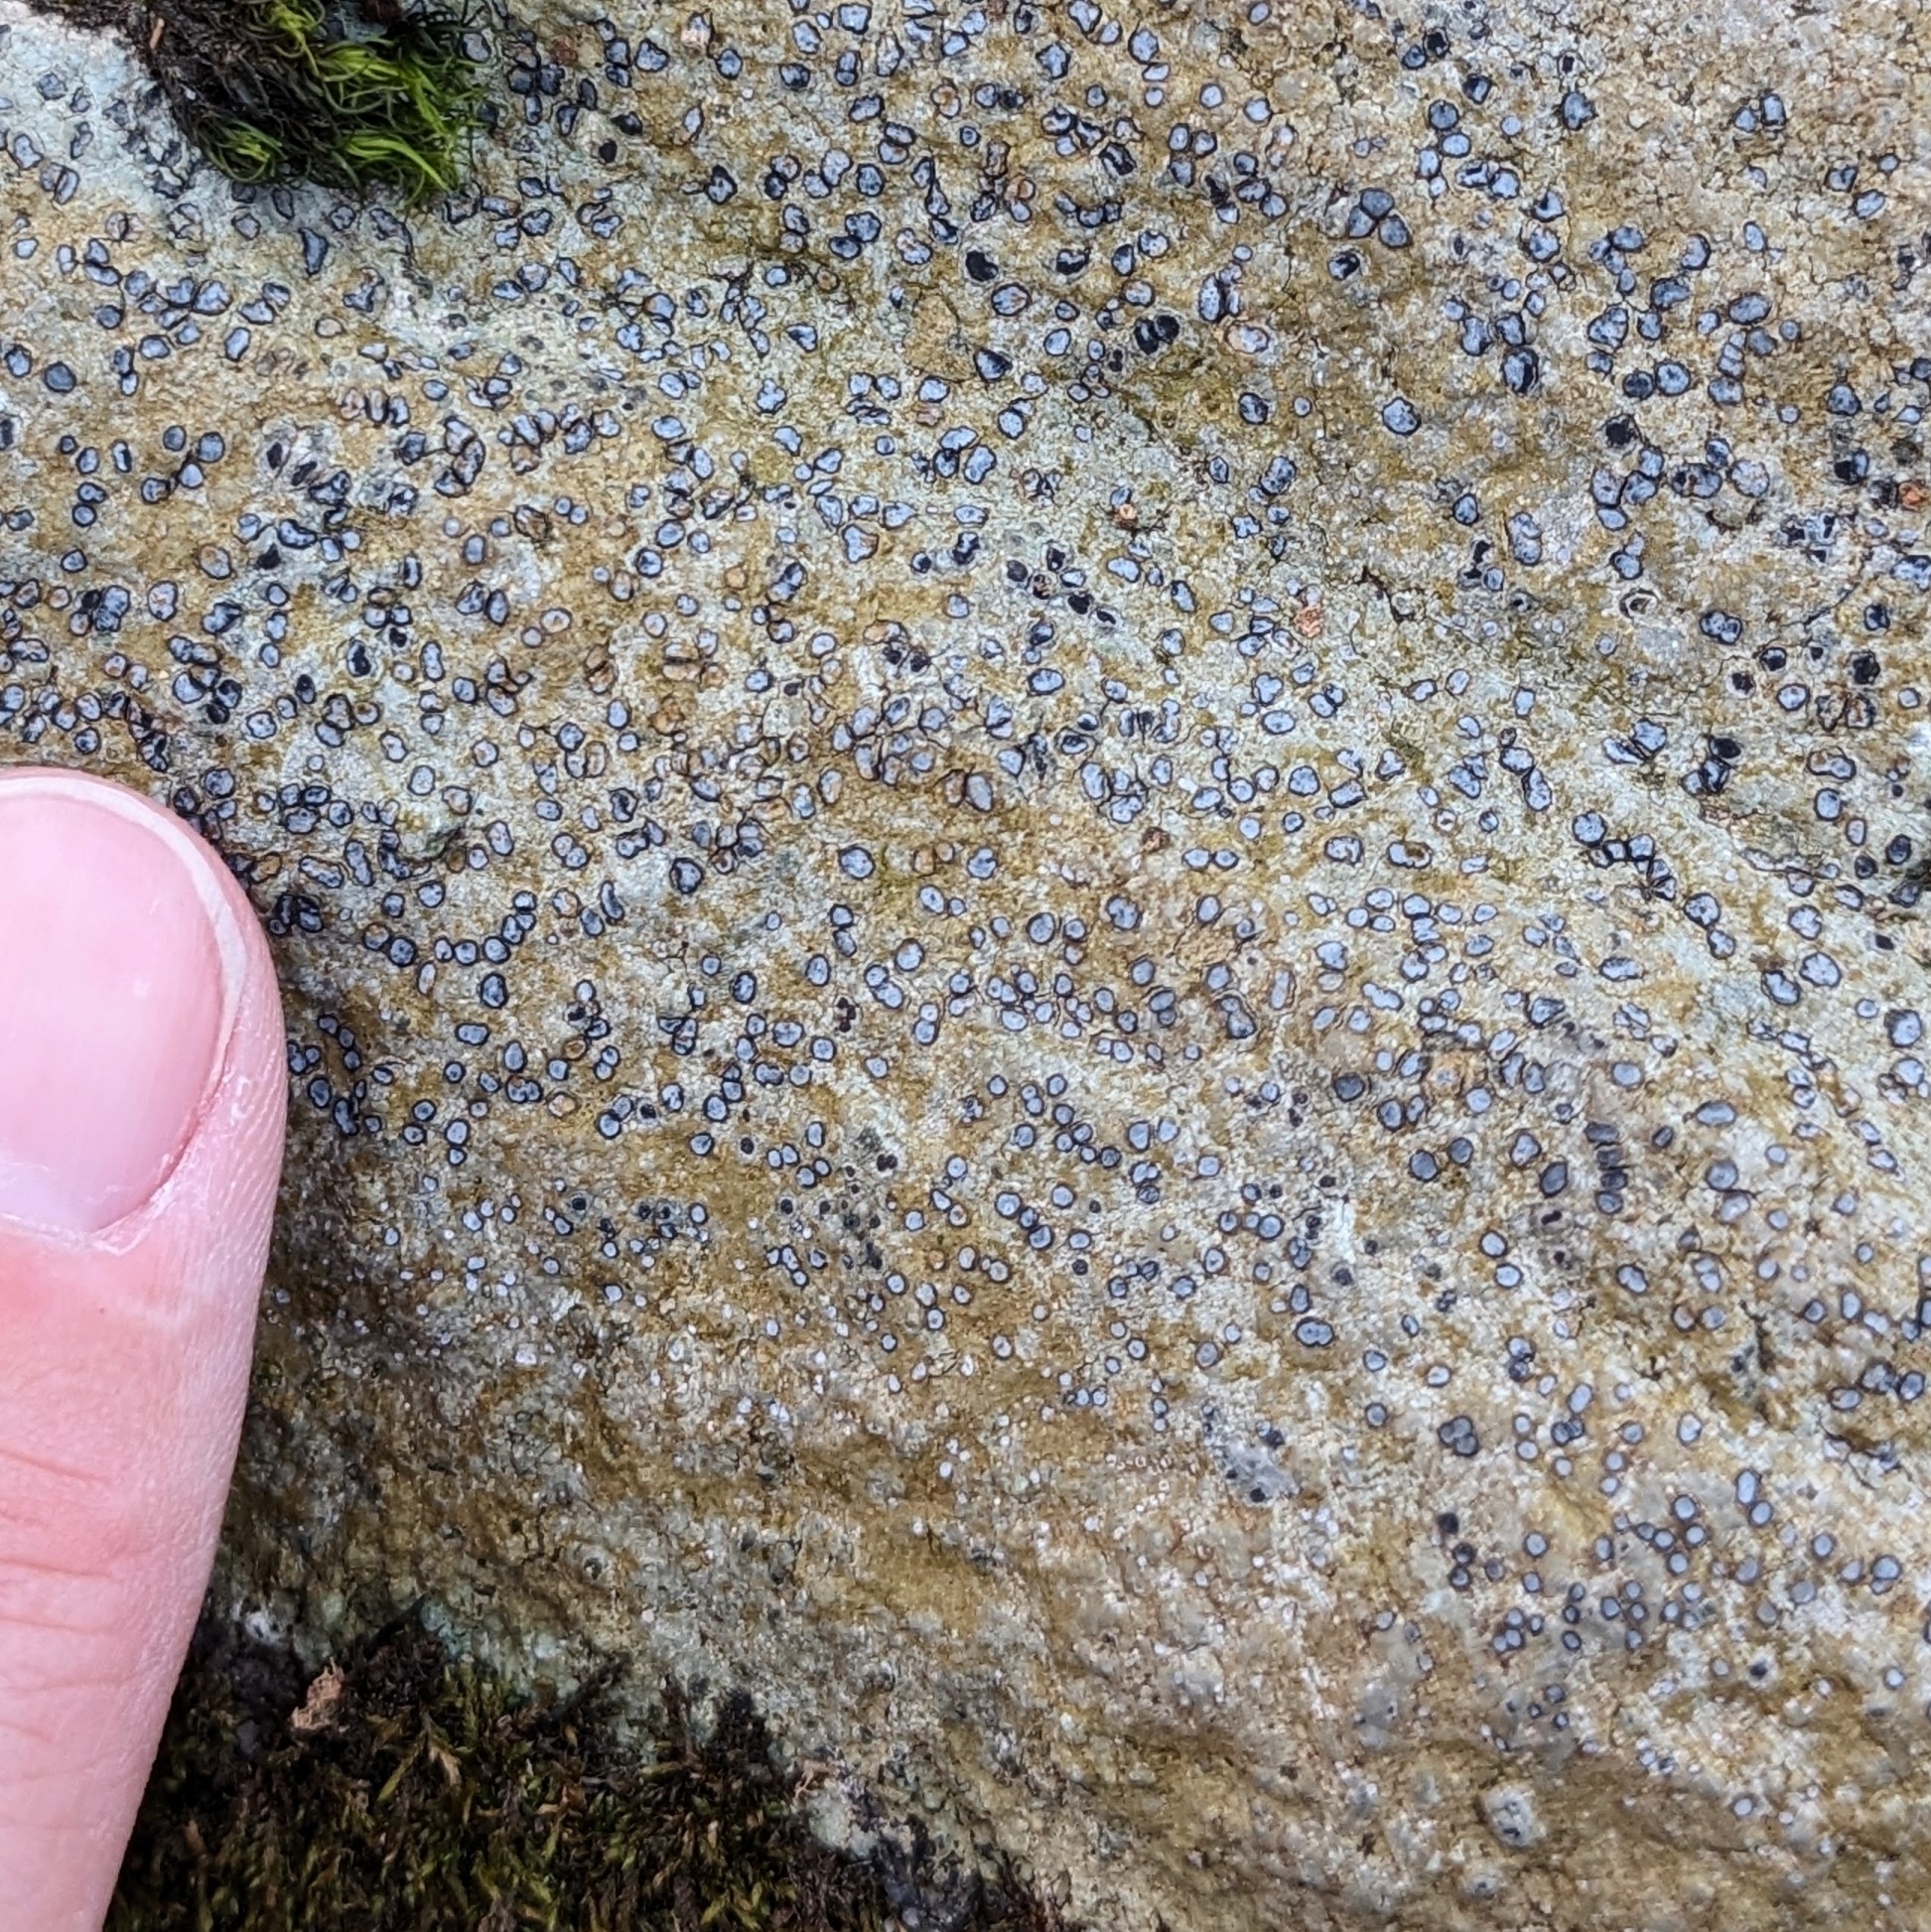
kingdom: Fungi
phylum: Ascomycota
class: Lecanoromycetes
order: Lecideales
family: Lecideaceae
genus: Porpidia
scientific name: Porpidia albocaerulescens
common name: Smokey-eyed boulder lichen
